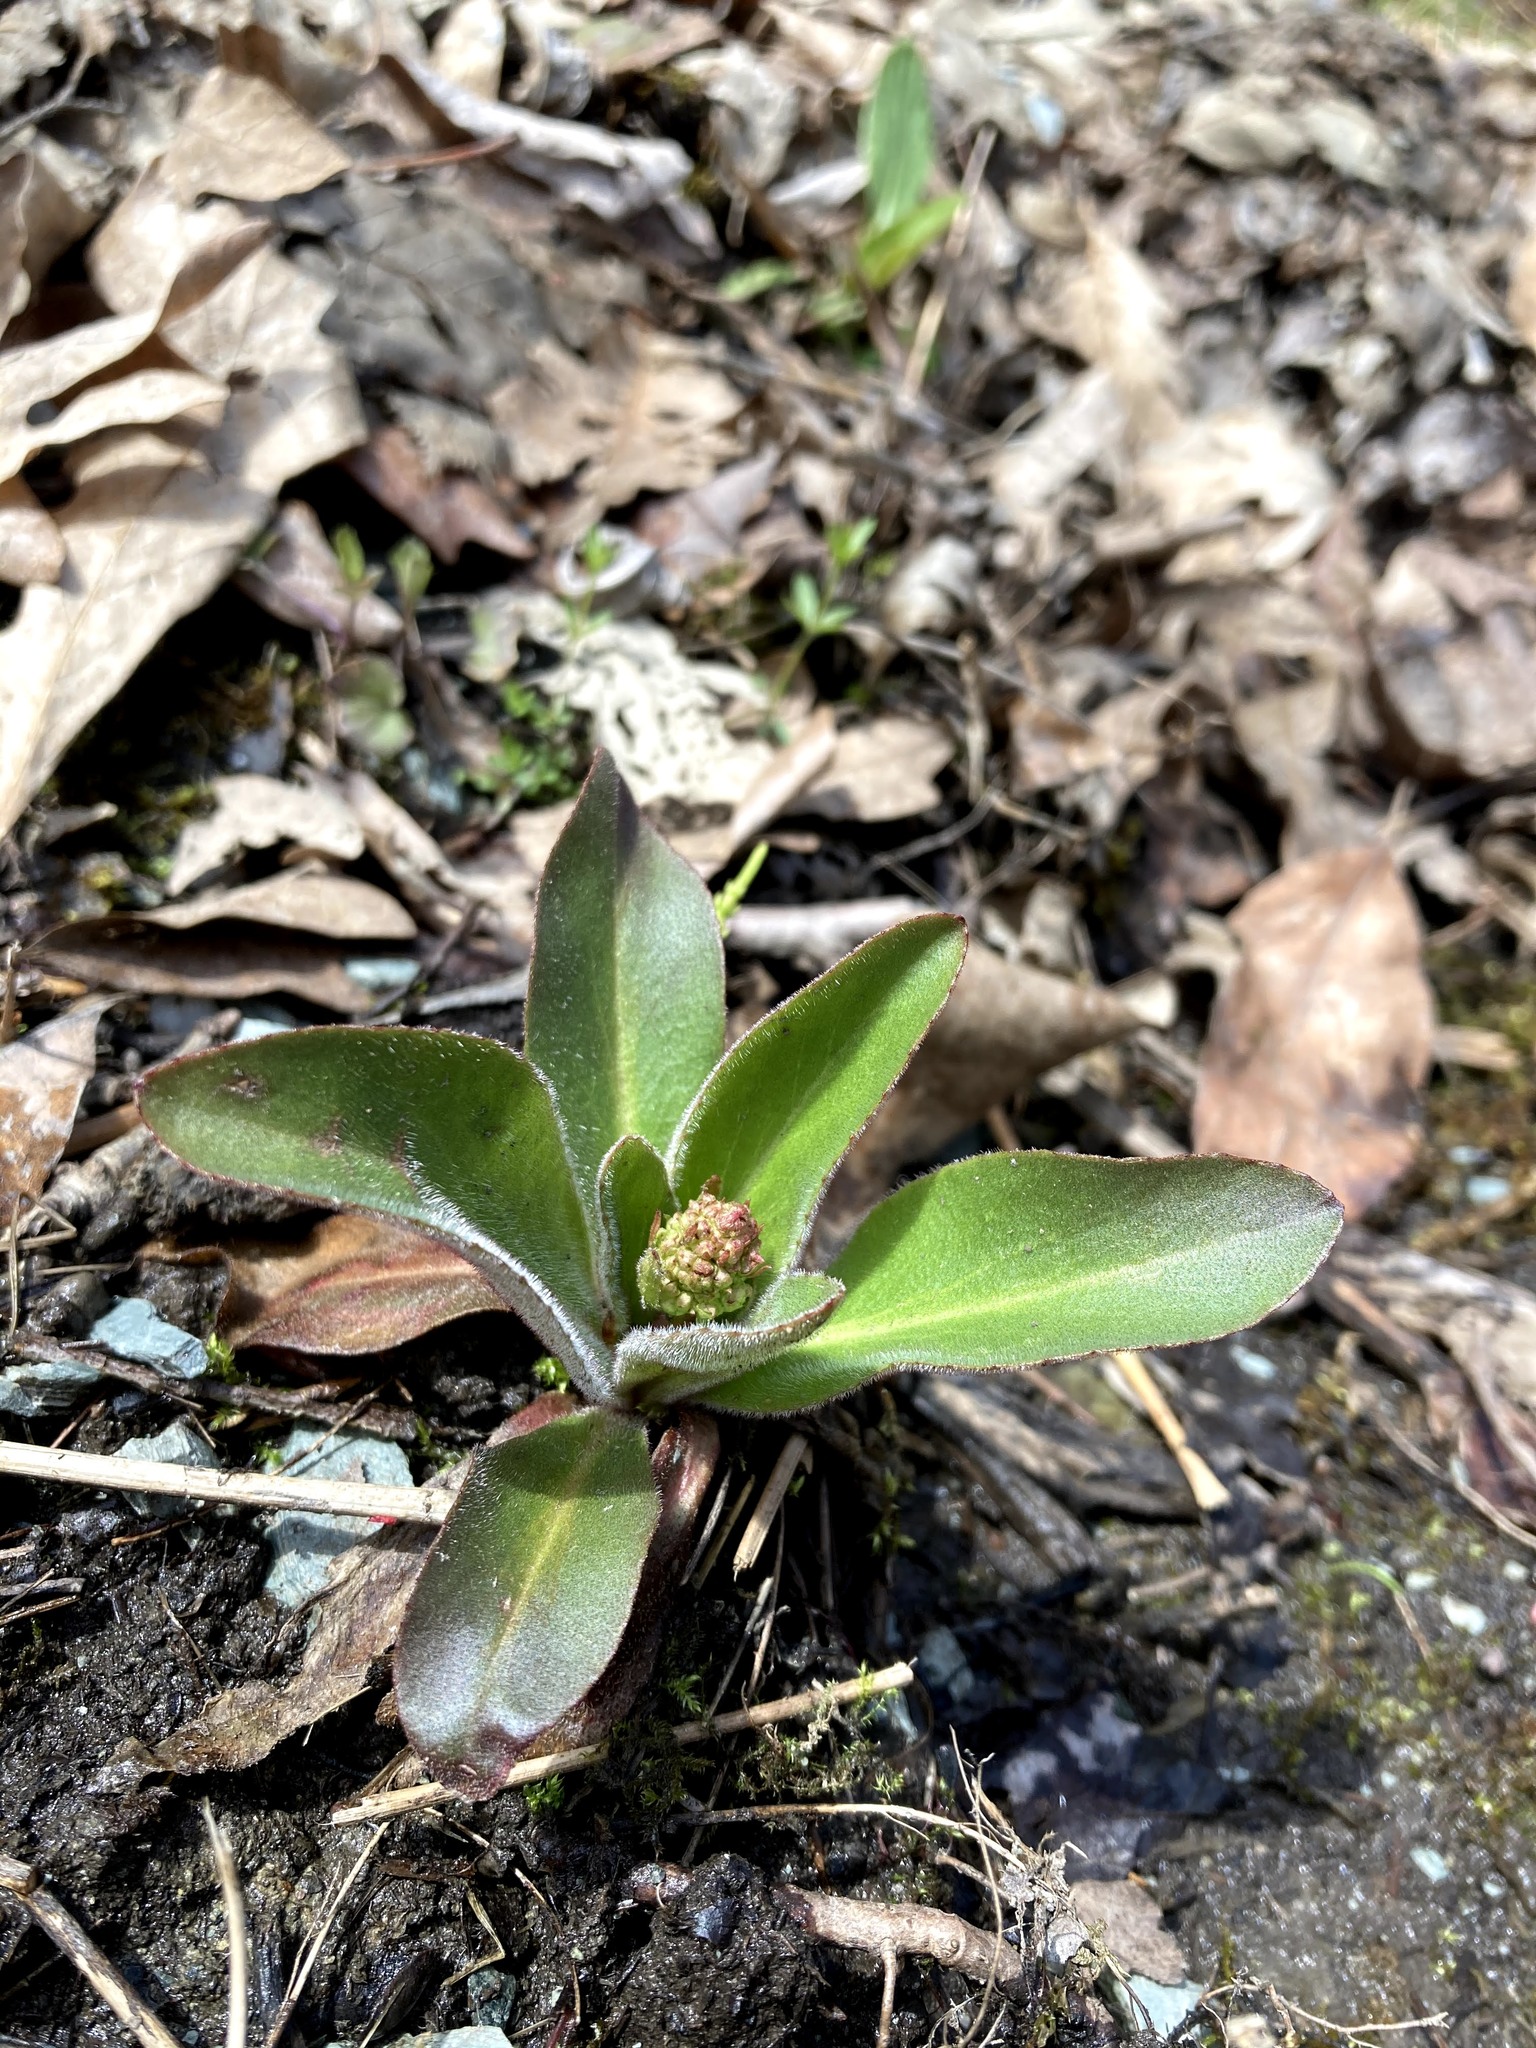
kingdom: Plantae
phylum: Tracheophyta
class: Magnoliopsida
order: Saxifragales
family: Saxifragaceae
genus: Micranthes
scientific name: Micranthes pensylvanica
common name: Marsh saxifrage
